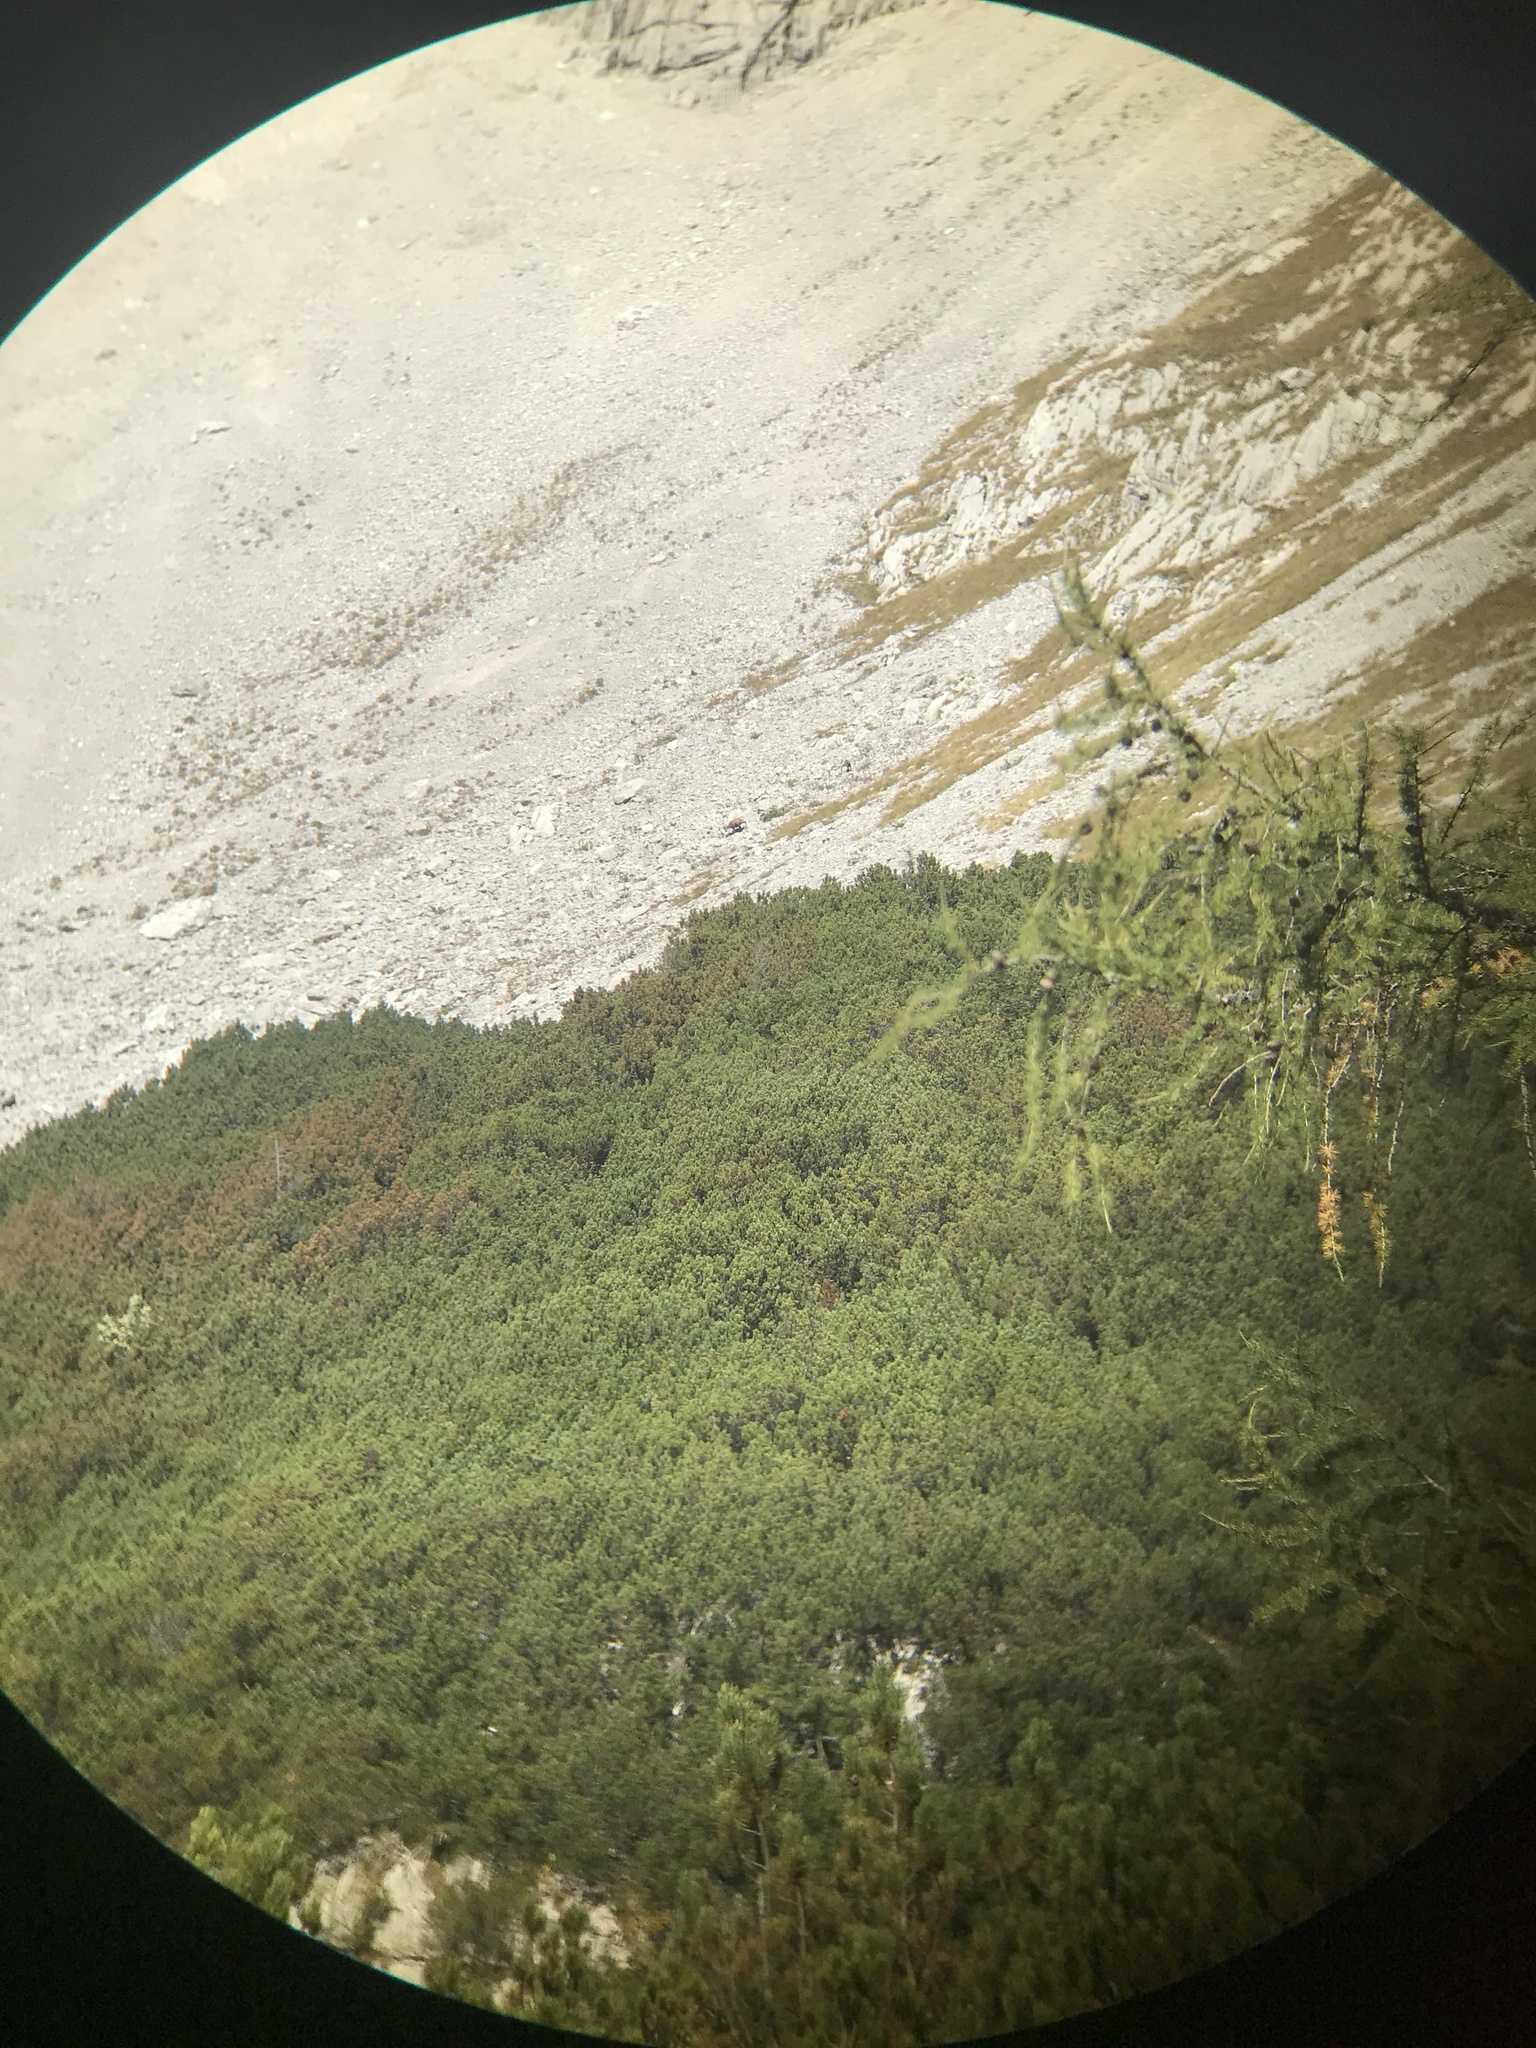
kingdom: Animalia
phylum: Chordata
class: Mammalia
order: Artiodactyla
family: Bovidae
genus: Rupicapra
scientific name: Rupicapra rupicapra
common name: Chamois
